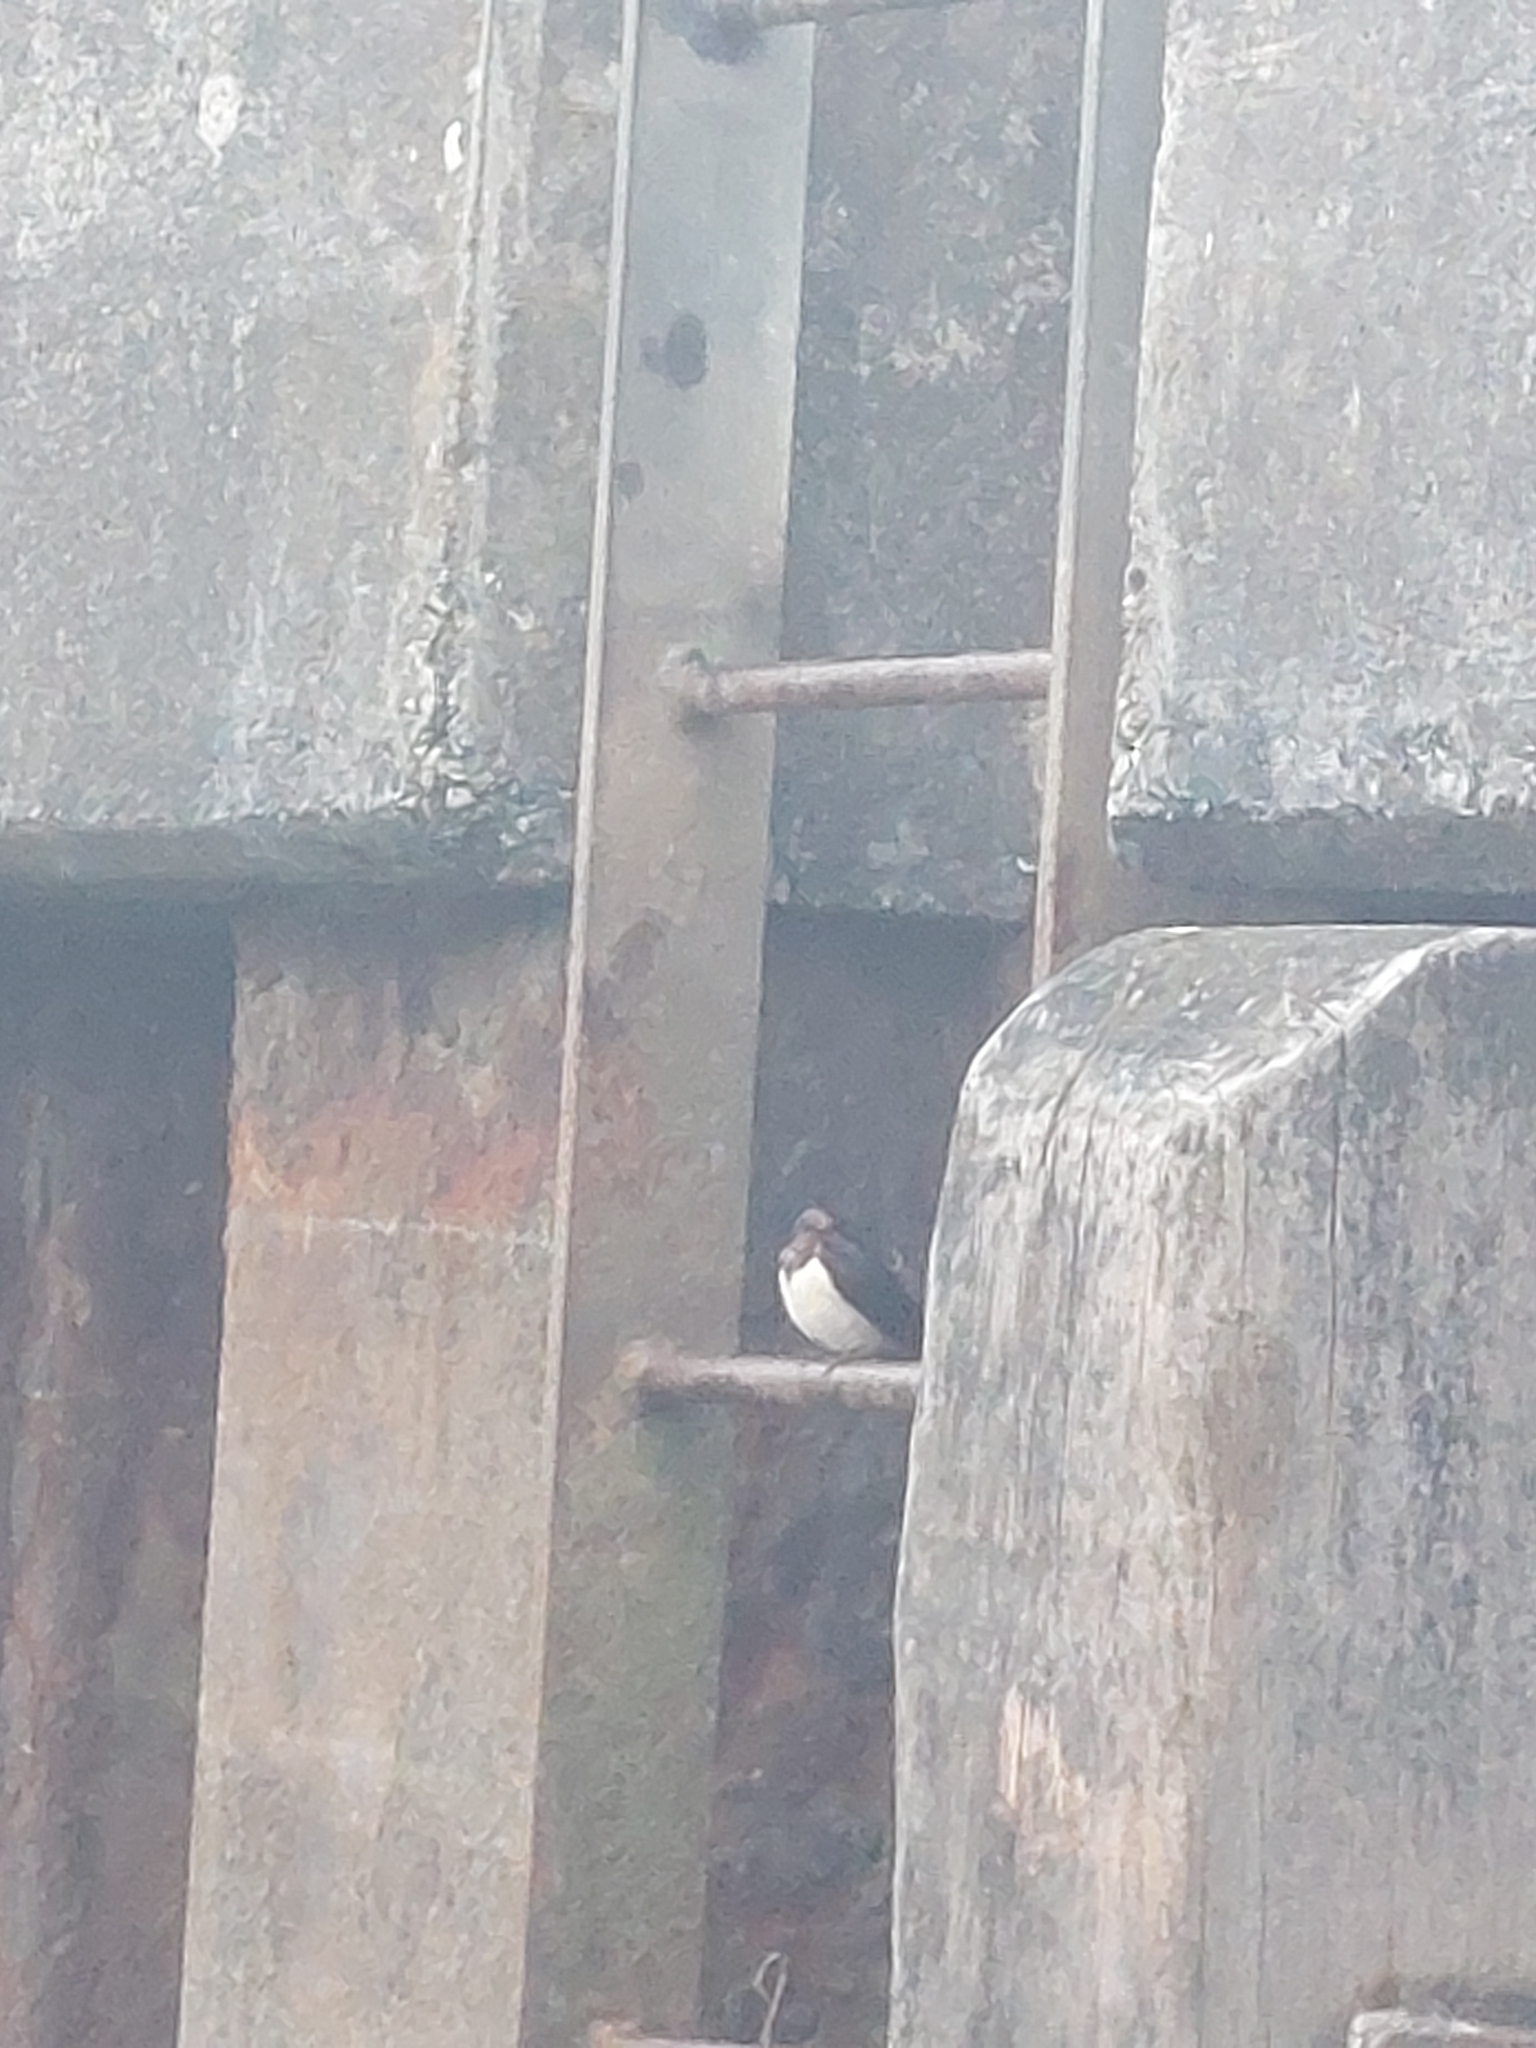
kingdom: Animalia
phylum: Chordata
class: Aves
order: Passeriformes
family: Hirundinidae
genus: Hirundo
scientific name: Hirundo rustica
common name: Barn swallow
